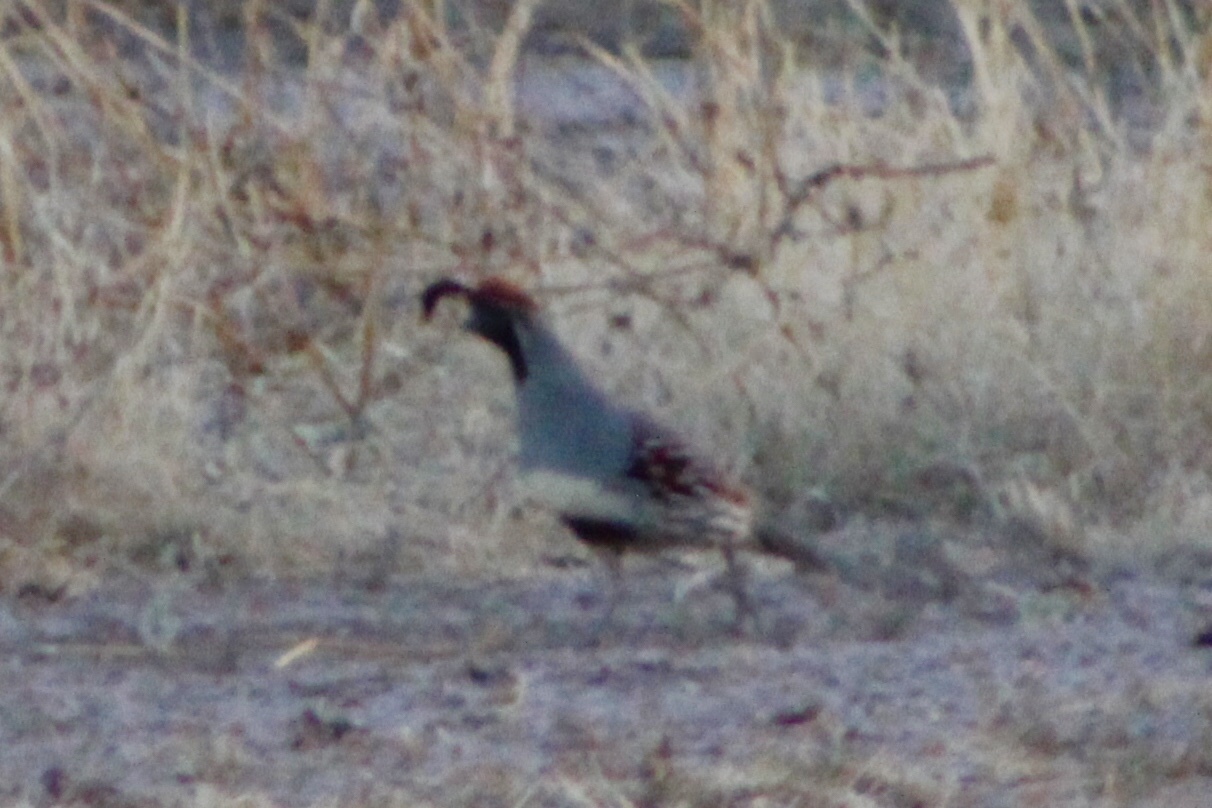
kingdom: Animalia
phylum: Chordata
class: Aves
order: Galliformes
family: Odontophoridae
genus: Callipepla
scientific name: Callipepla gambelii
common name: Gambel's quail
